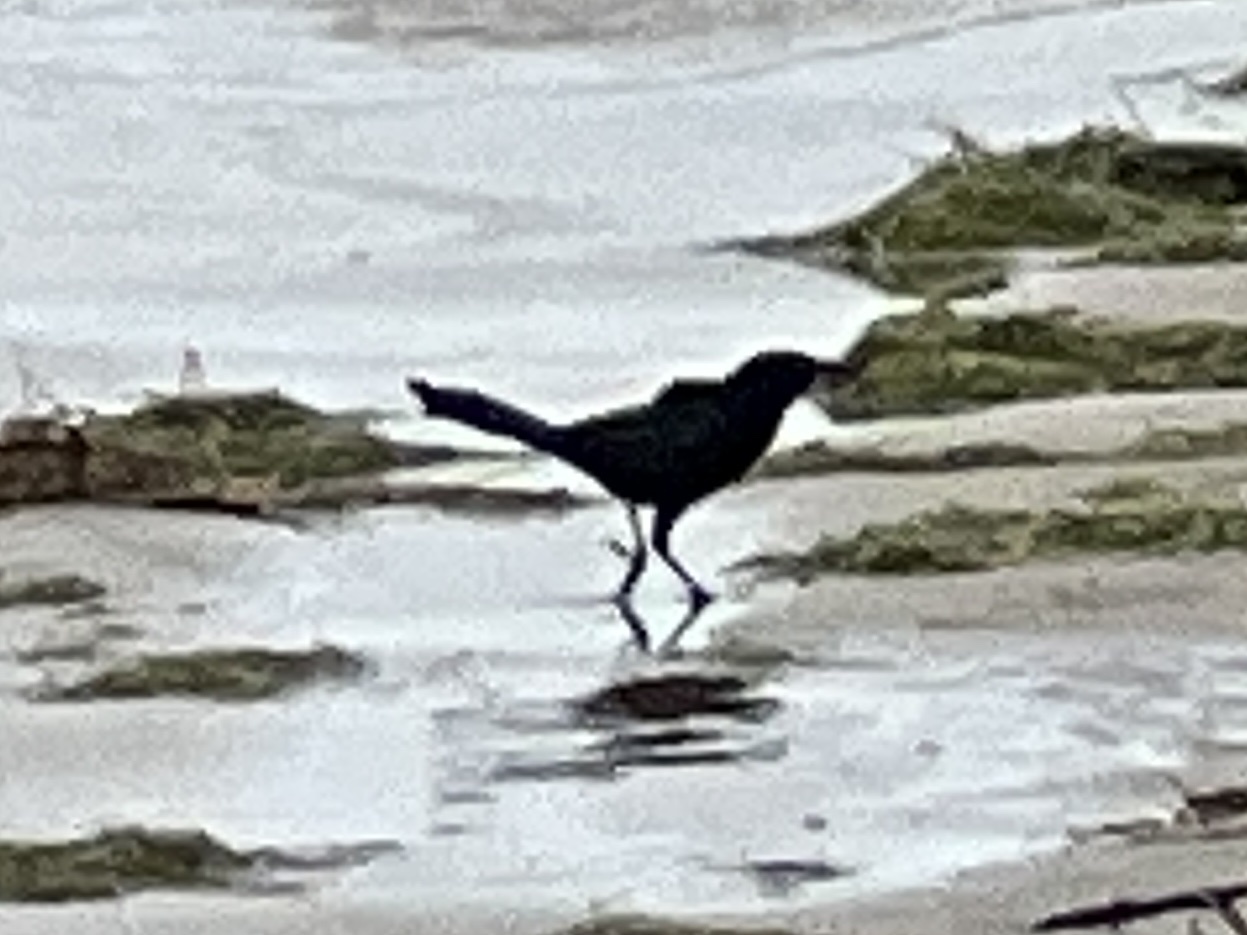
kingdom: Animalia
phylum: Chordata
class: Aves
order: Passeriformes
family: Icteridae
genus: Quiscalus
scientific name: Quiscalus mexicanus
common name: Great-tailed grackle
